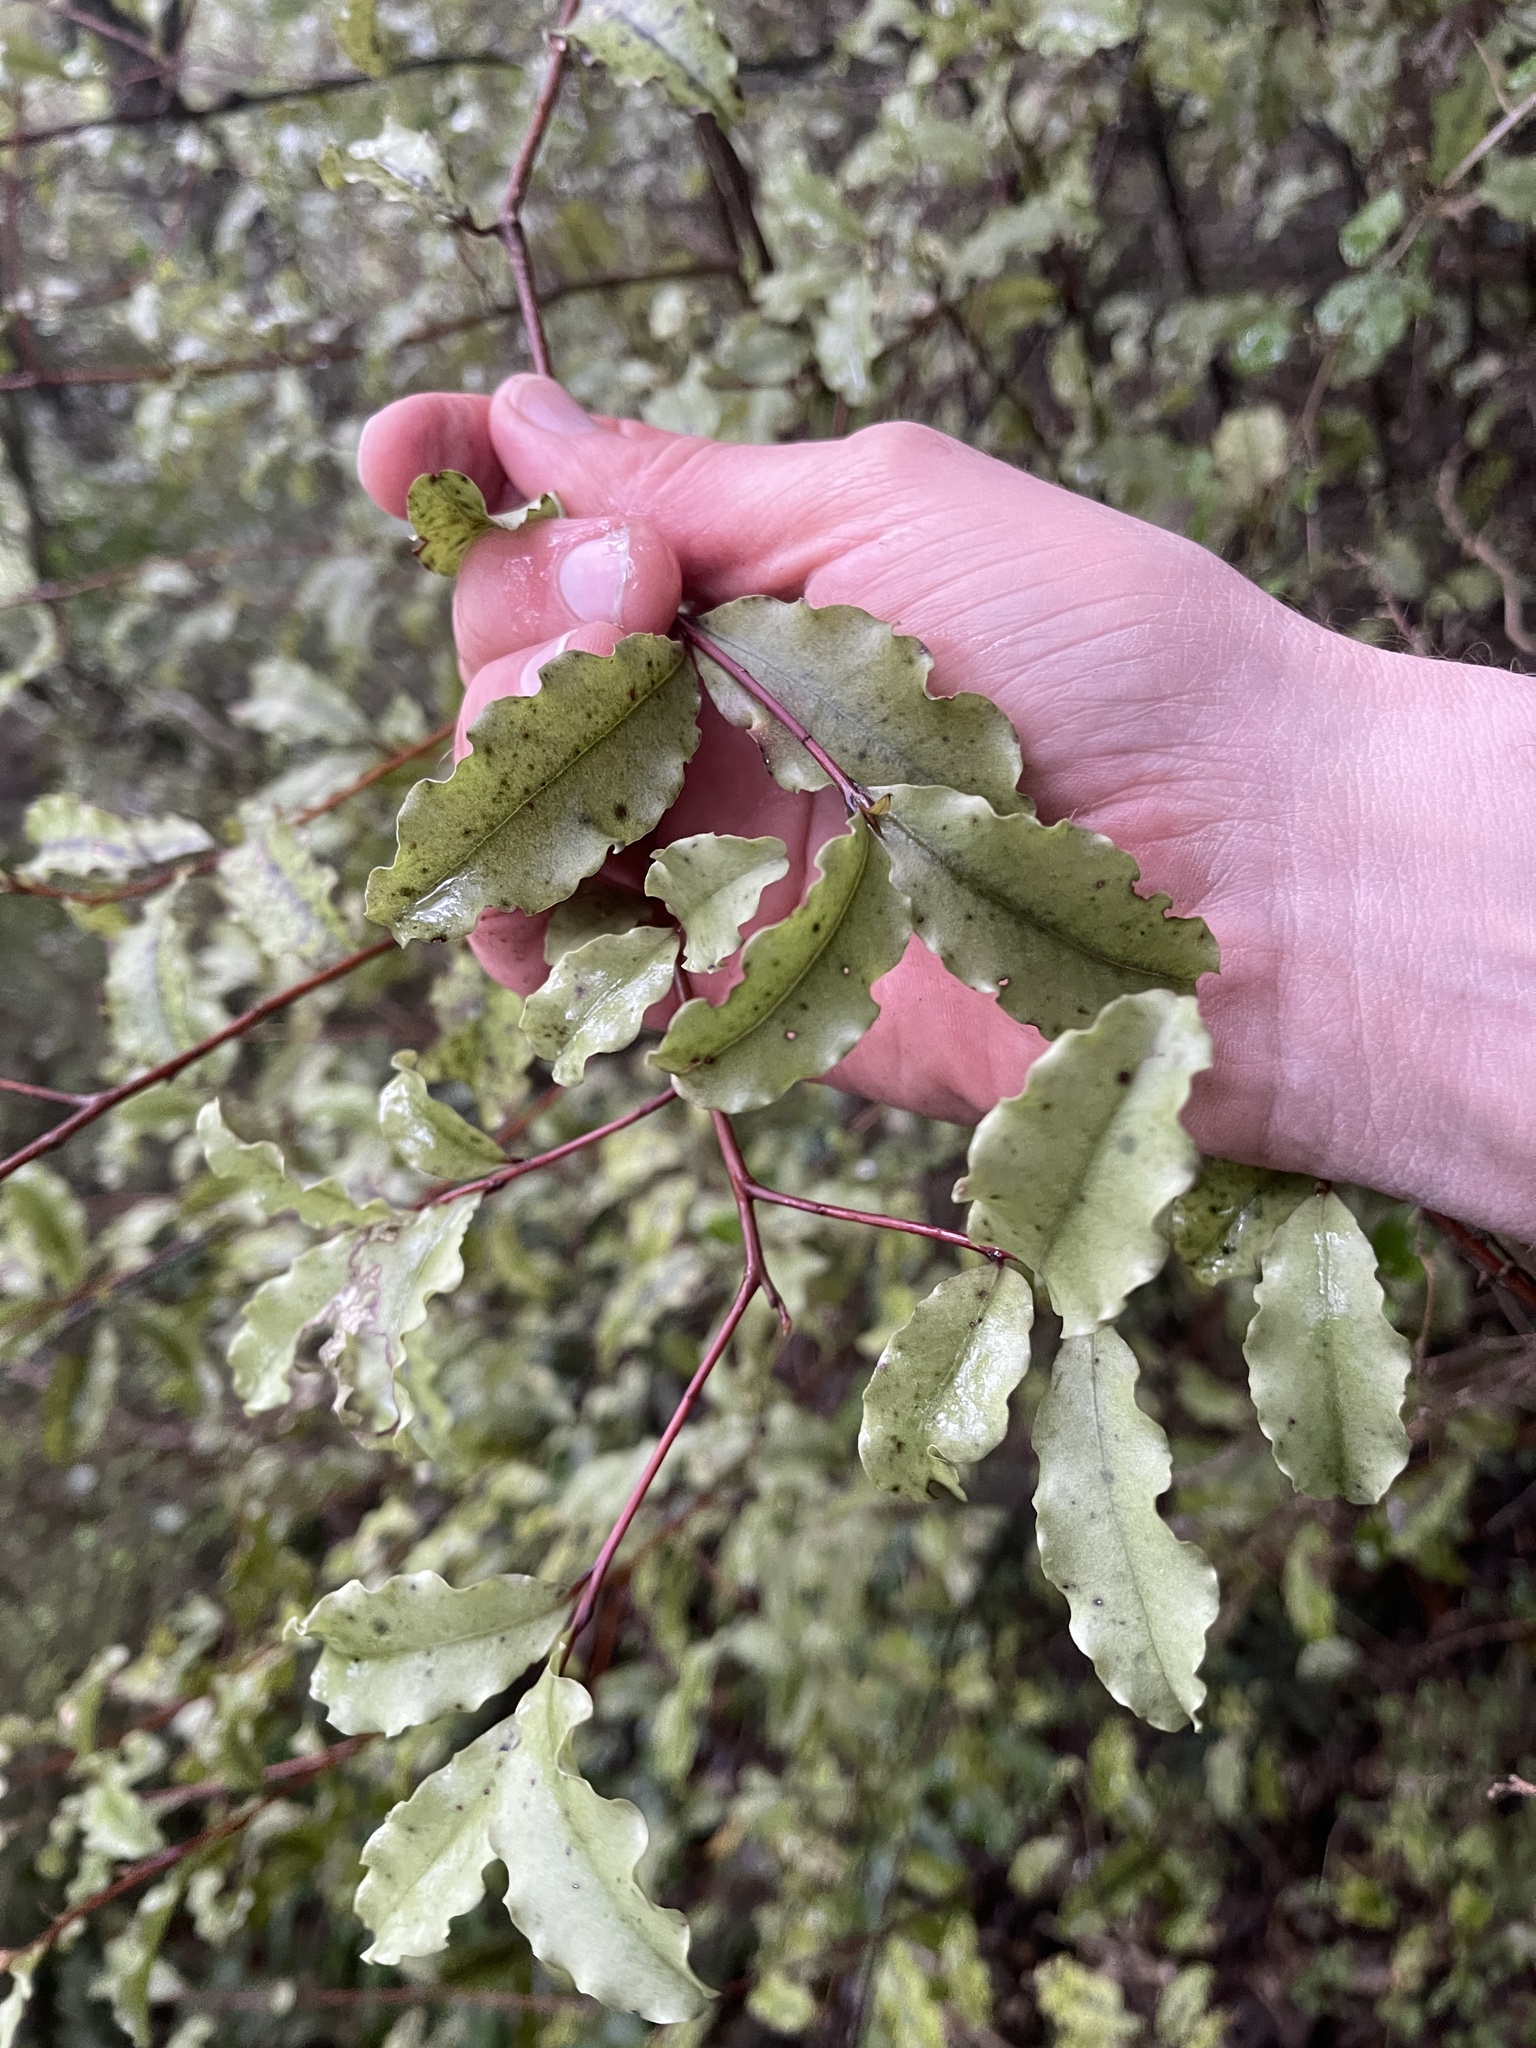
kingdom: Plantae
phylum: Tracheophyta
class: Magnoliopsida
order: Ericales
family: Primulaceae
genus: Myrsine
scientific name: Myrsine australis
